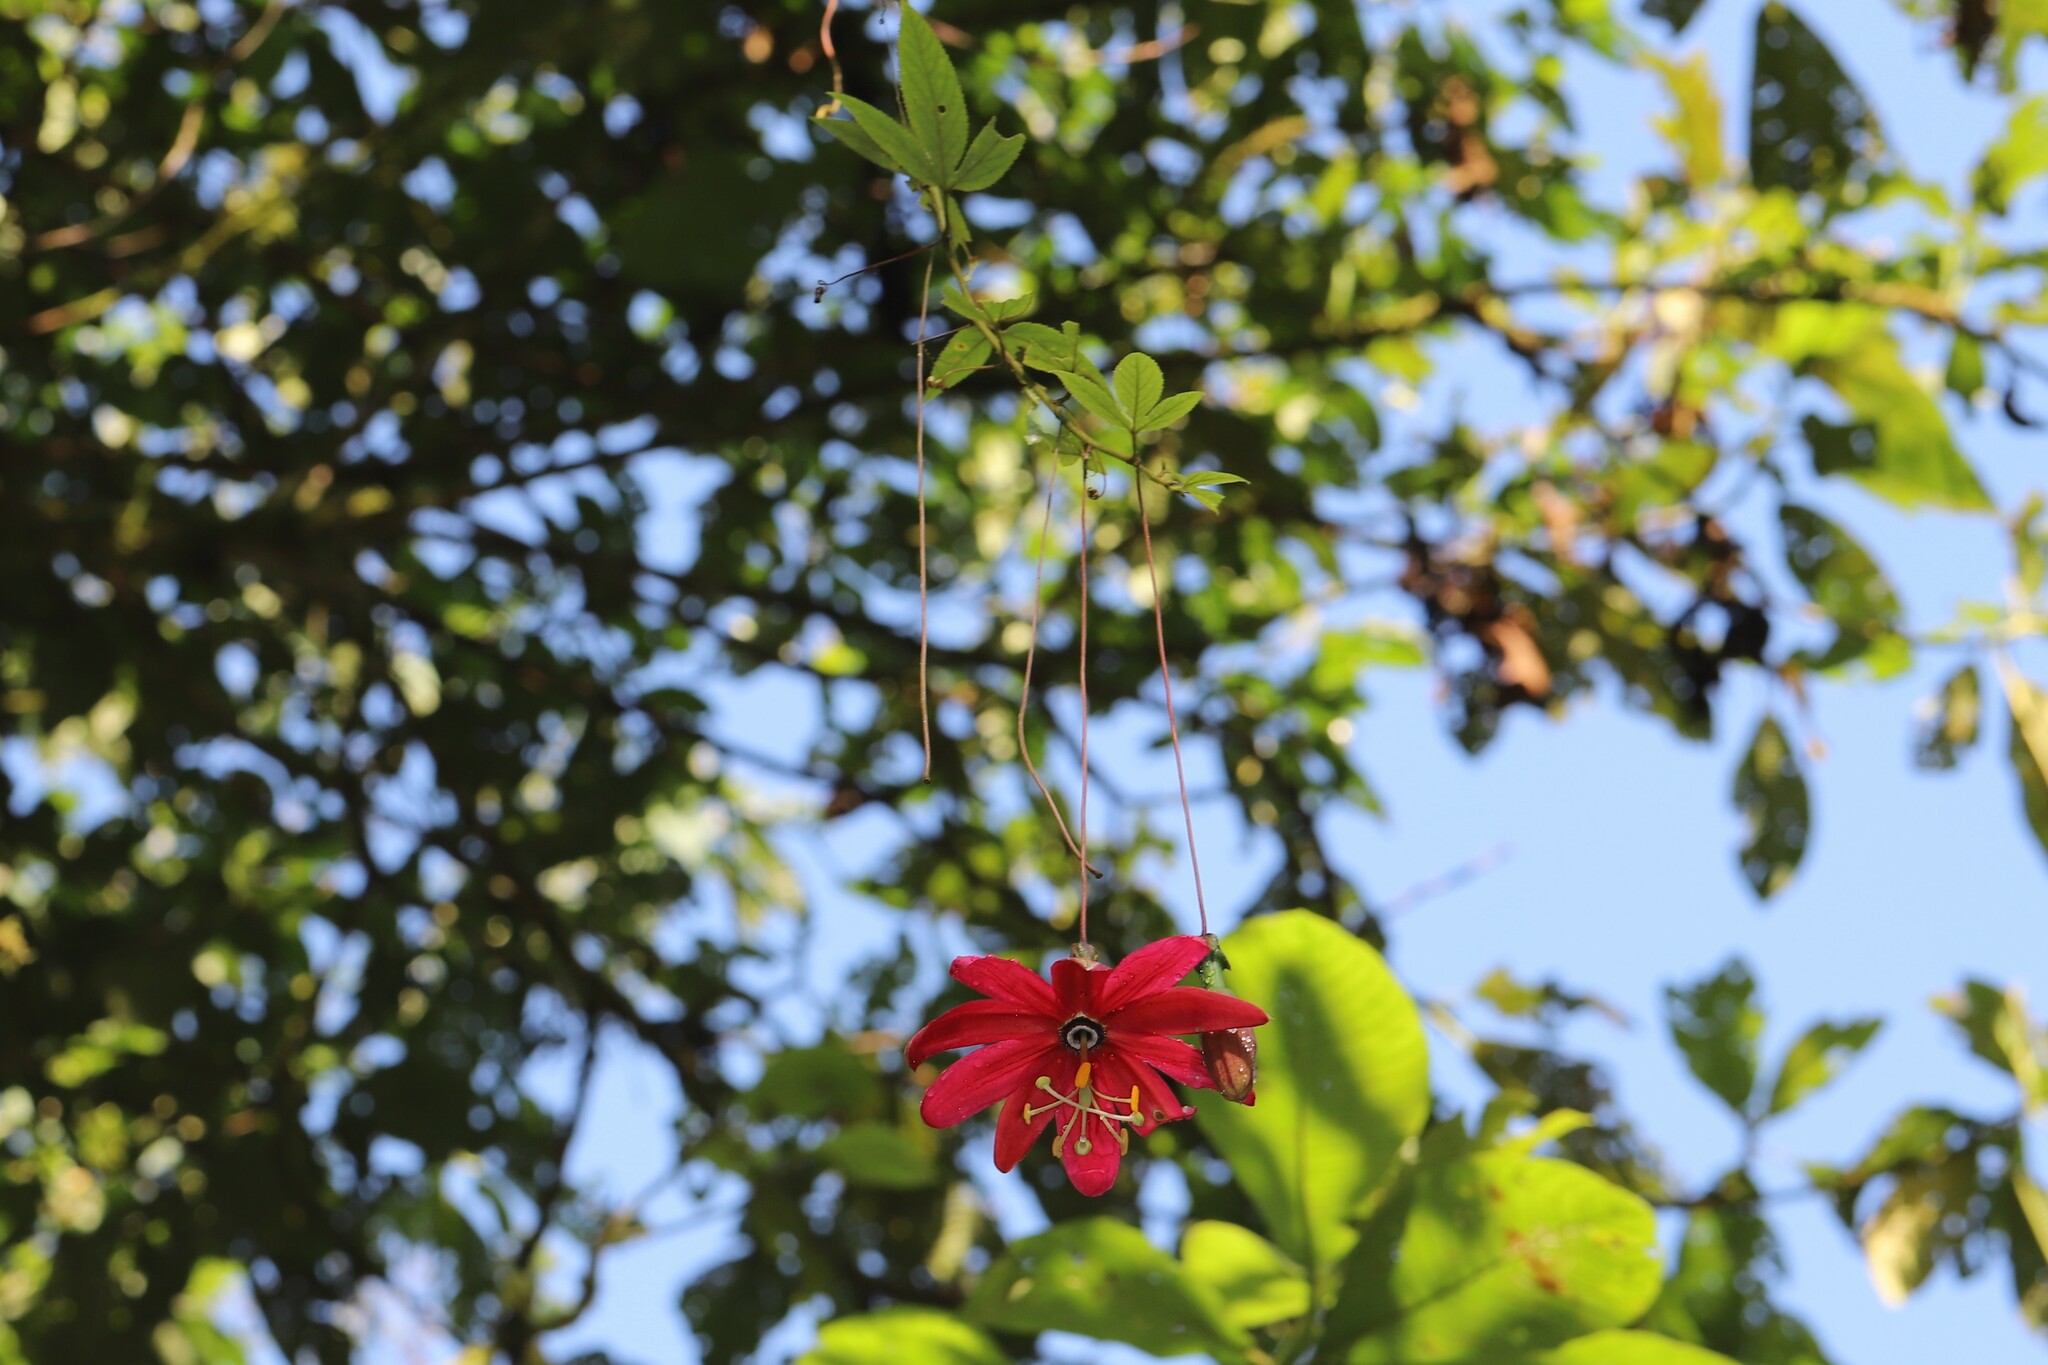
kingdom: Plantae
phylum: Tracheophyta
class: Magnoliopsida
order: Malpighiales
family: Passifloraceae
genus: Passiflora
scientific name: Passiflora antioquiensis
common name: Banana passionfruit
